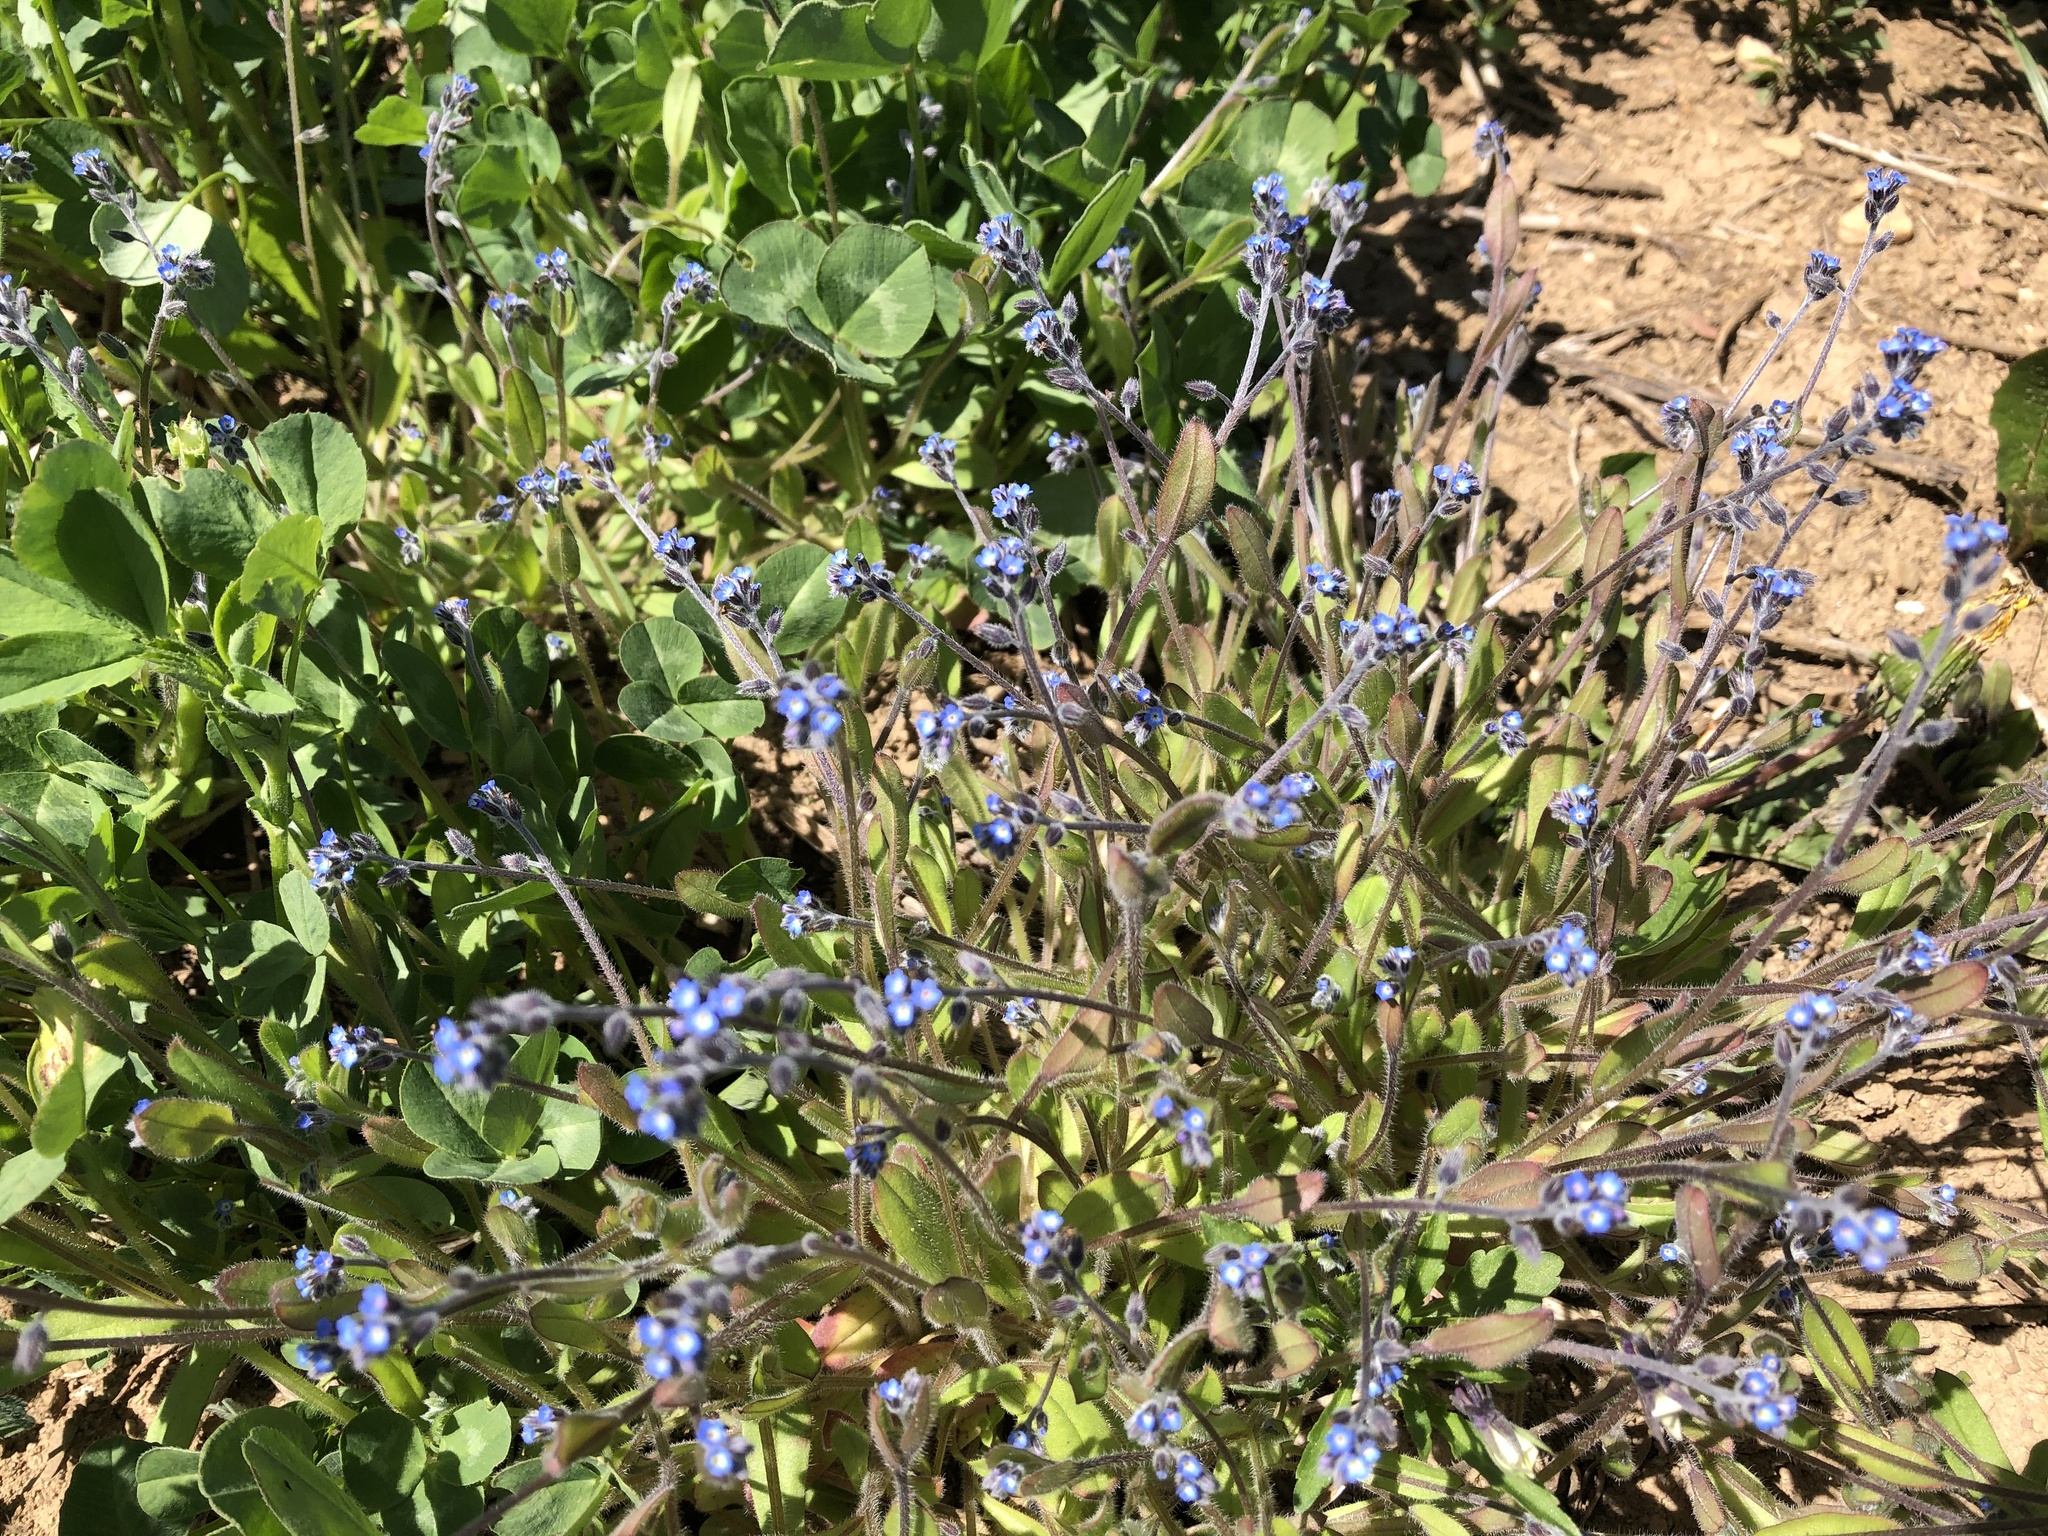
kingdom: Plantae
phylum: Tracheophyta
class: Magnoliopsida
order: Boraginales
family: Boraginaceae
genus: Myosotis
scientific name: Myosotis ramosissima
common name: Early forget-me-not
